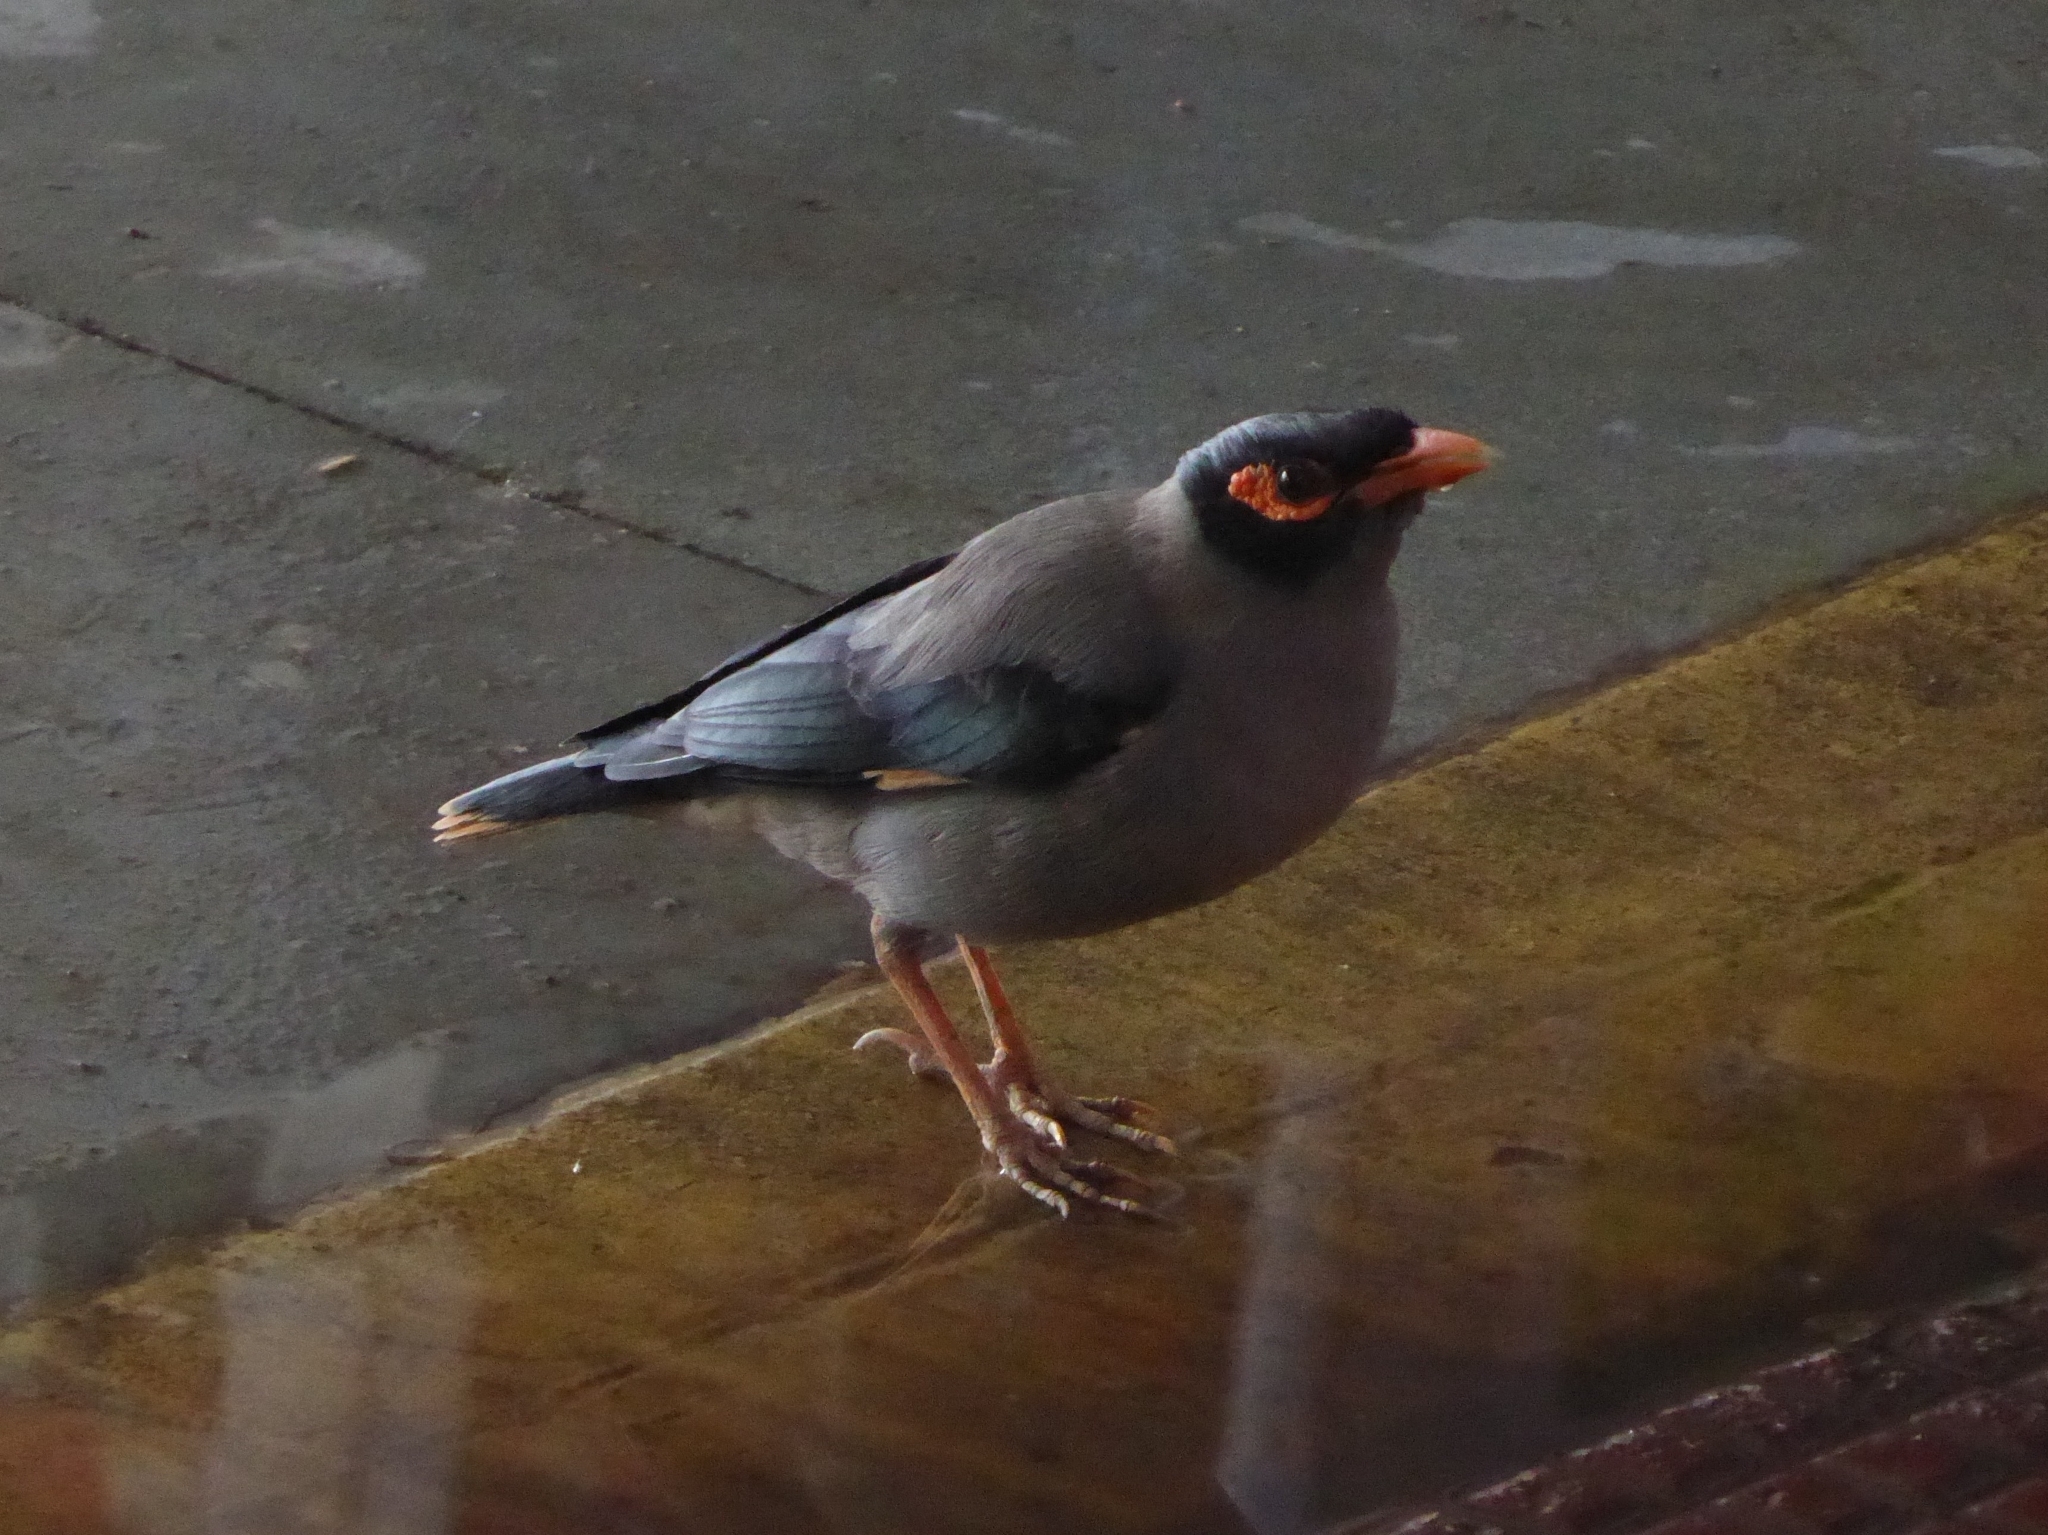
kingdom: Animalia
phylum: Chordata
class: Aves
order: Passeriformes
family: Sturnidae
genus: Acridotheres
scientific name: Acridotheres ginginianus
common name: Bank myna
